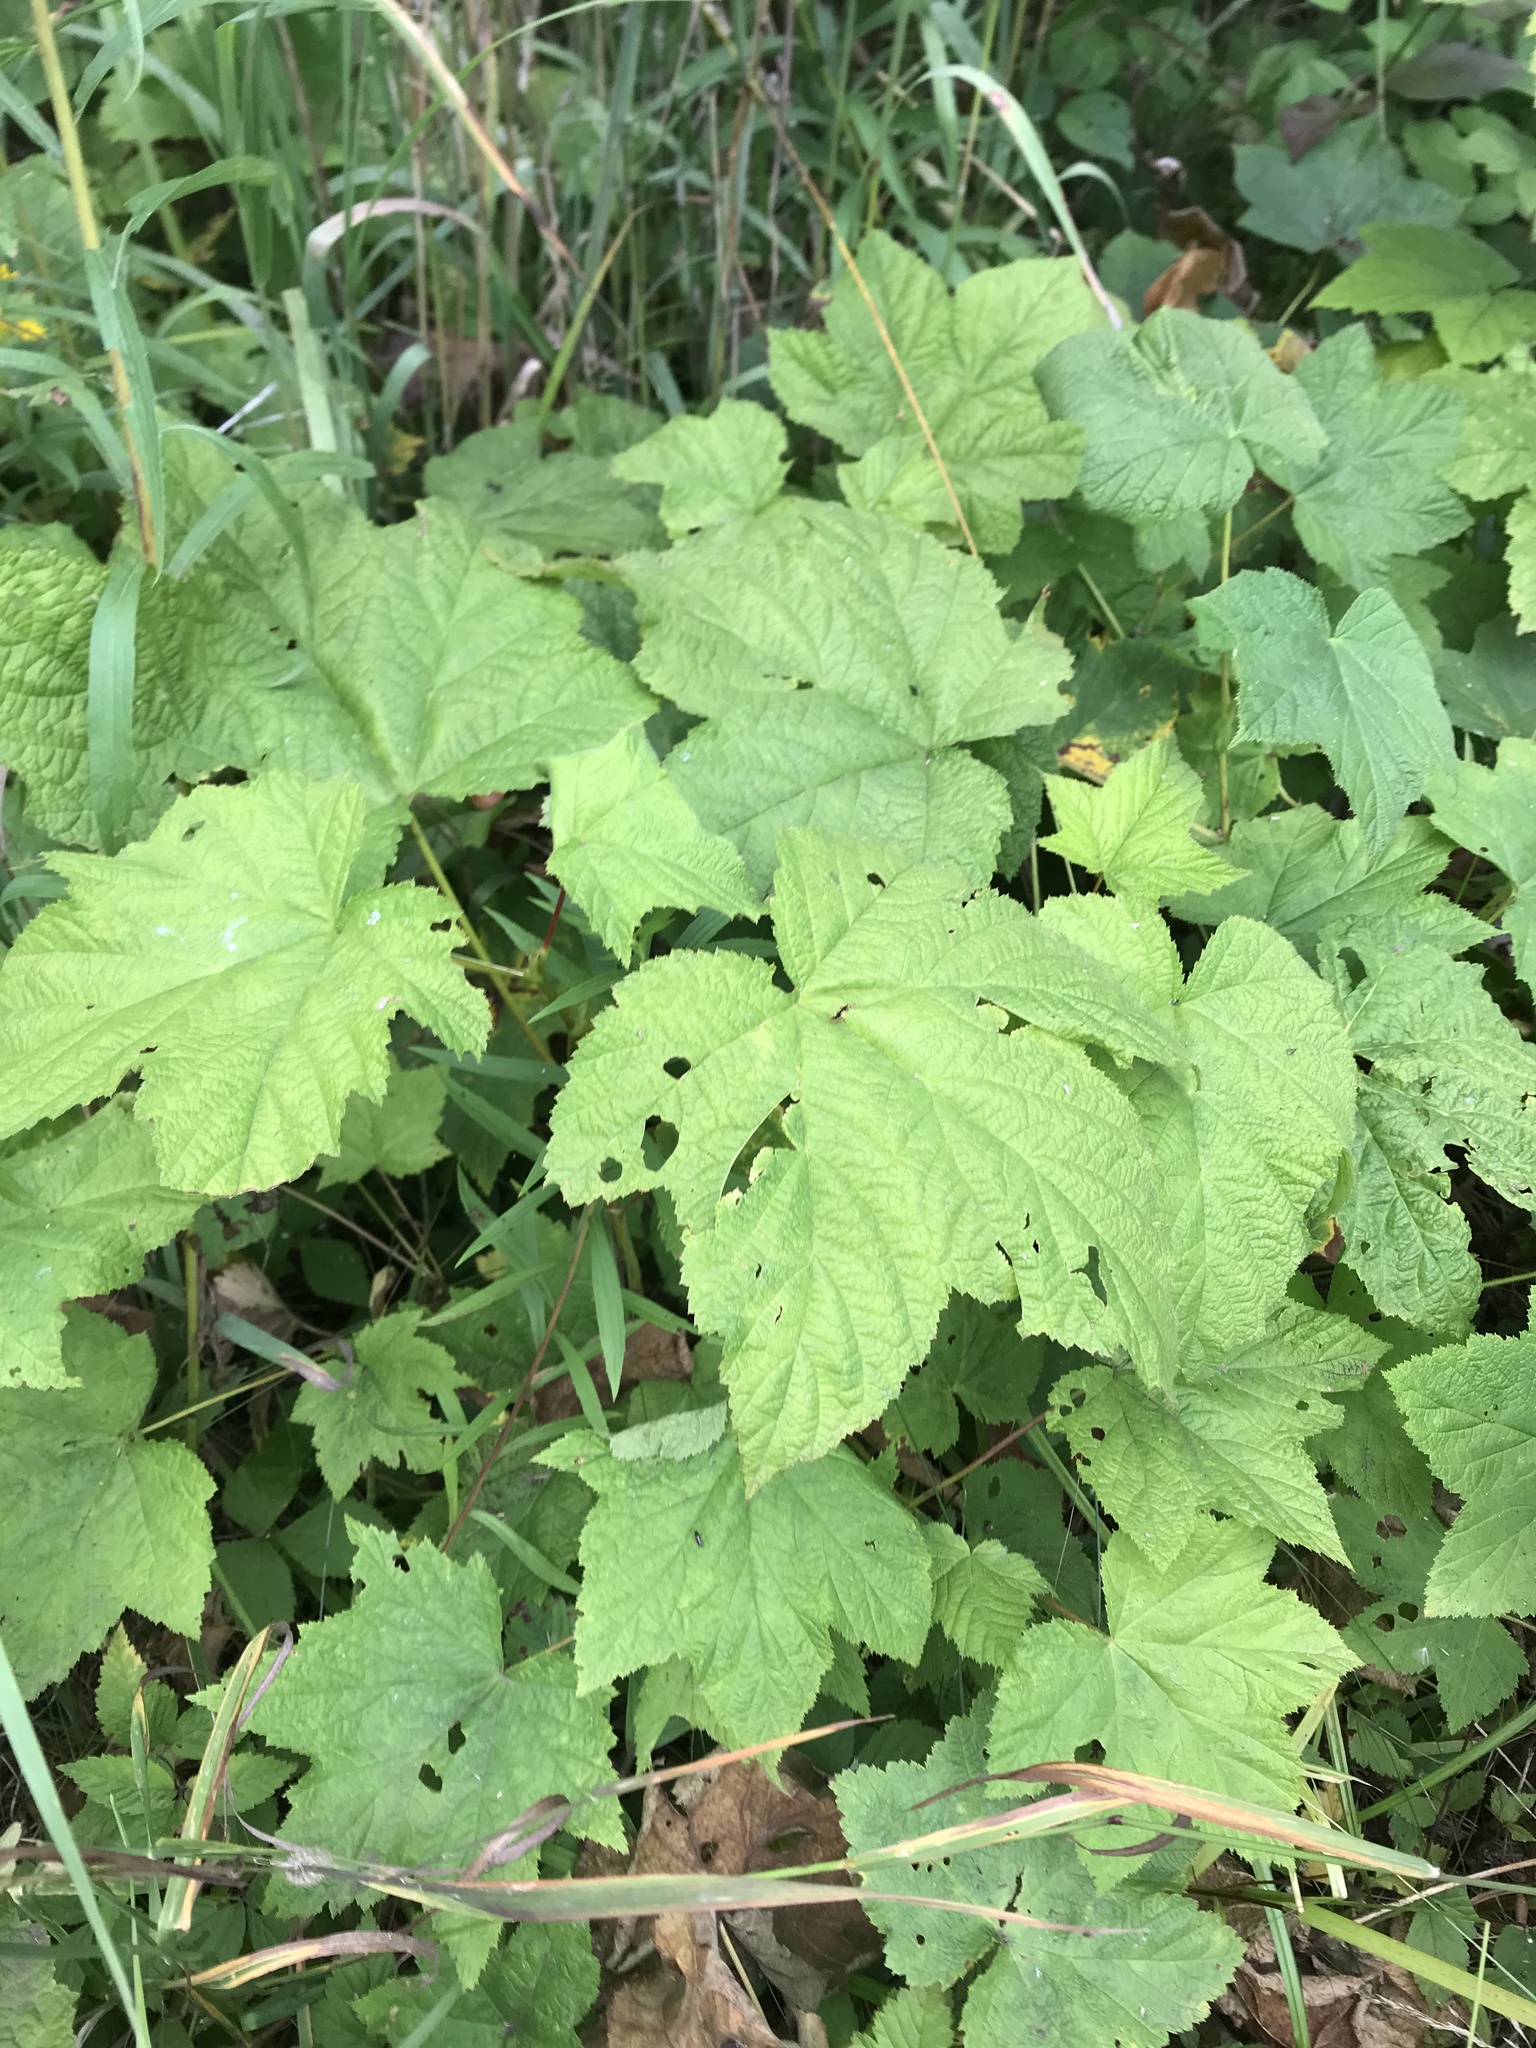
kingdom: Plantae
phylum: Tracheophyta
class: Magnoliopsida
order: Rosales
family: Rosaceae
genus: Rubus
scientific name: Rubus parviflorus
